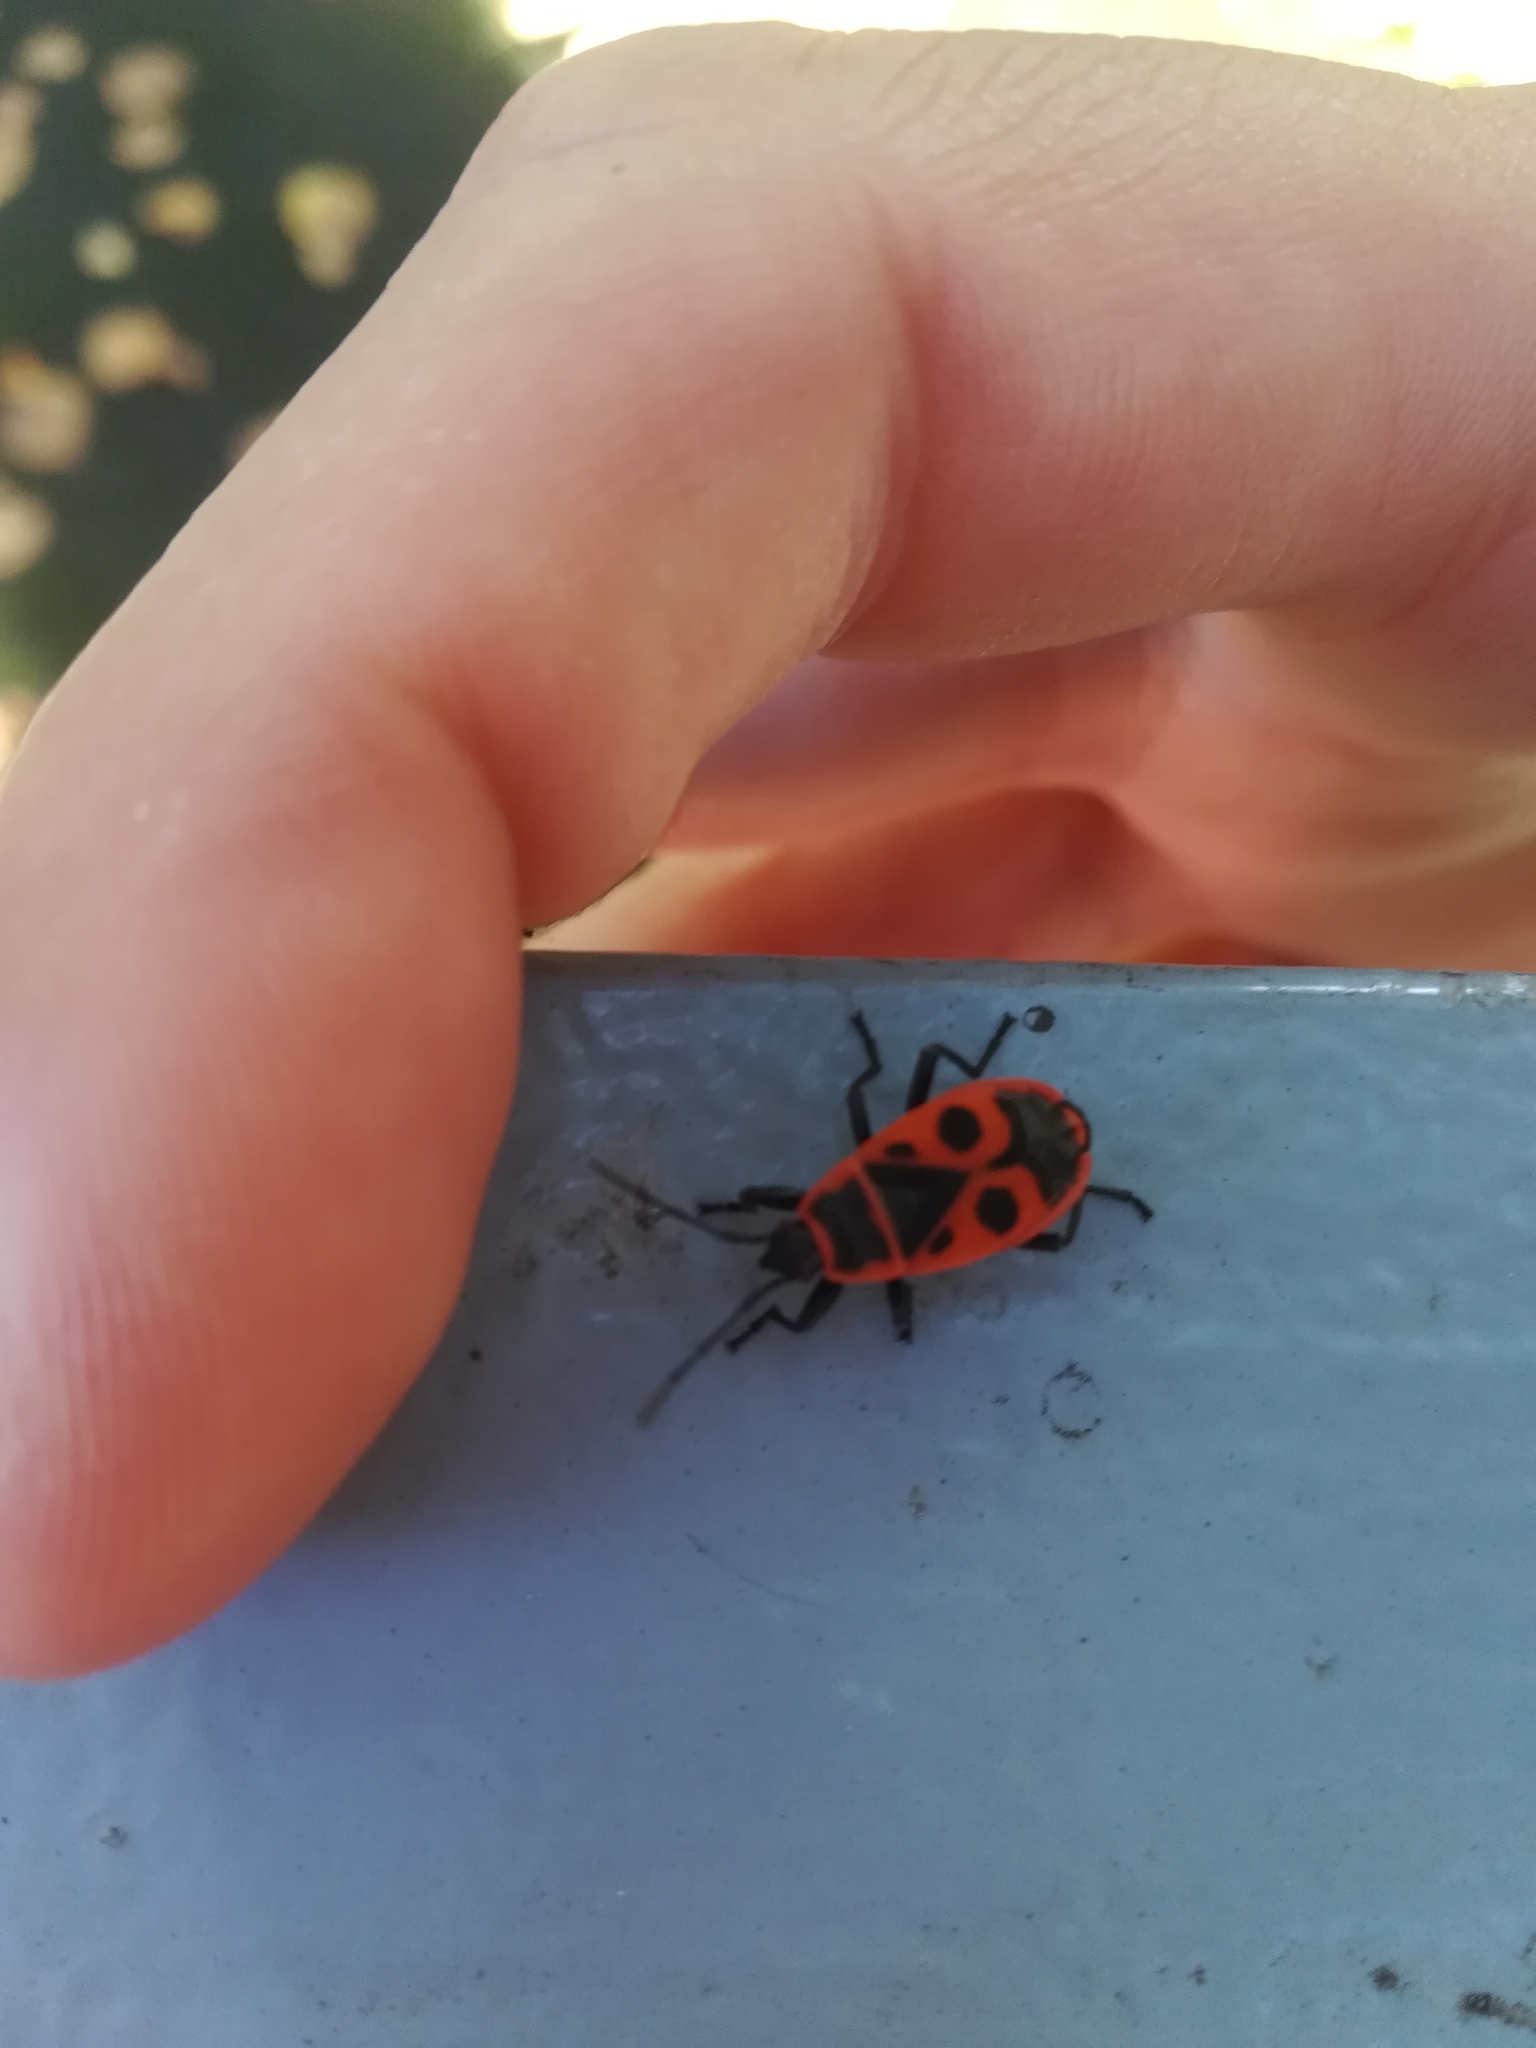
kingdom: Animalia
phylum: Arthropoda
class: Insecta
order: Hemiptera
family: Pyrrhocoridae
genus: Pyrrhocoris
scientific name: Pyrrhocoris apterus
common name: Firebug
